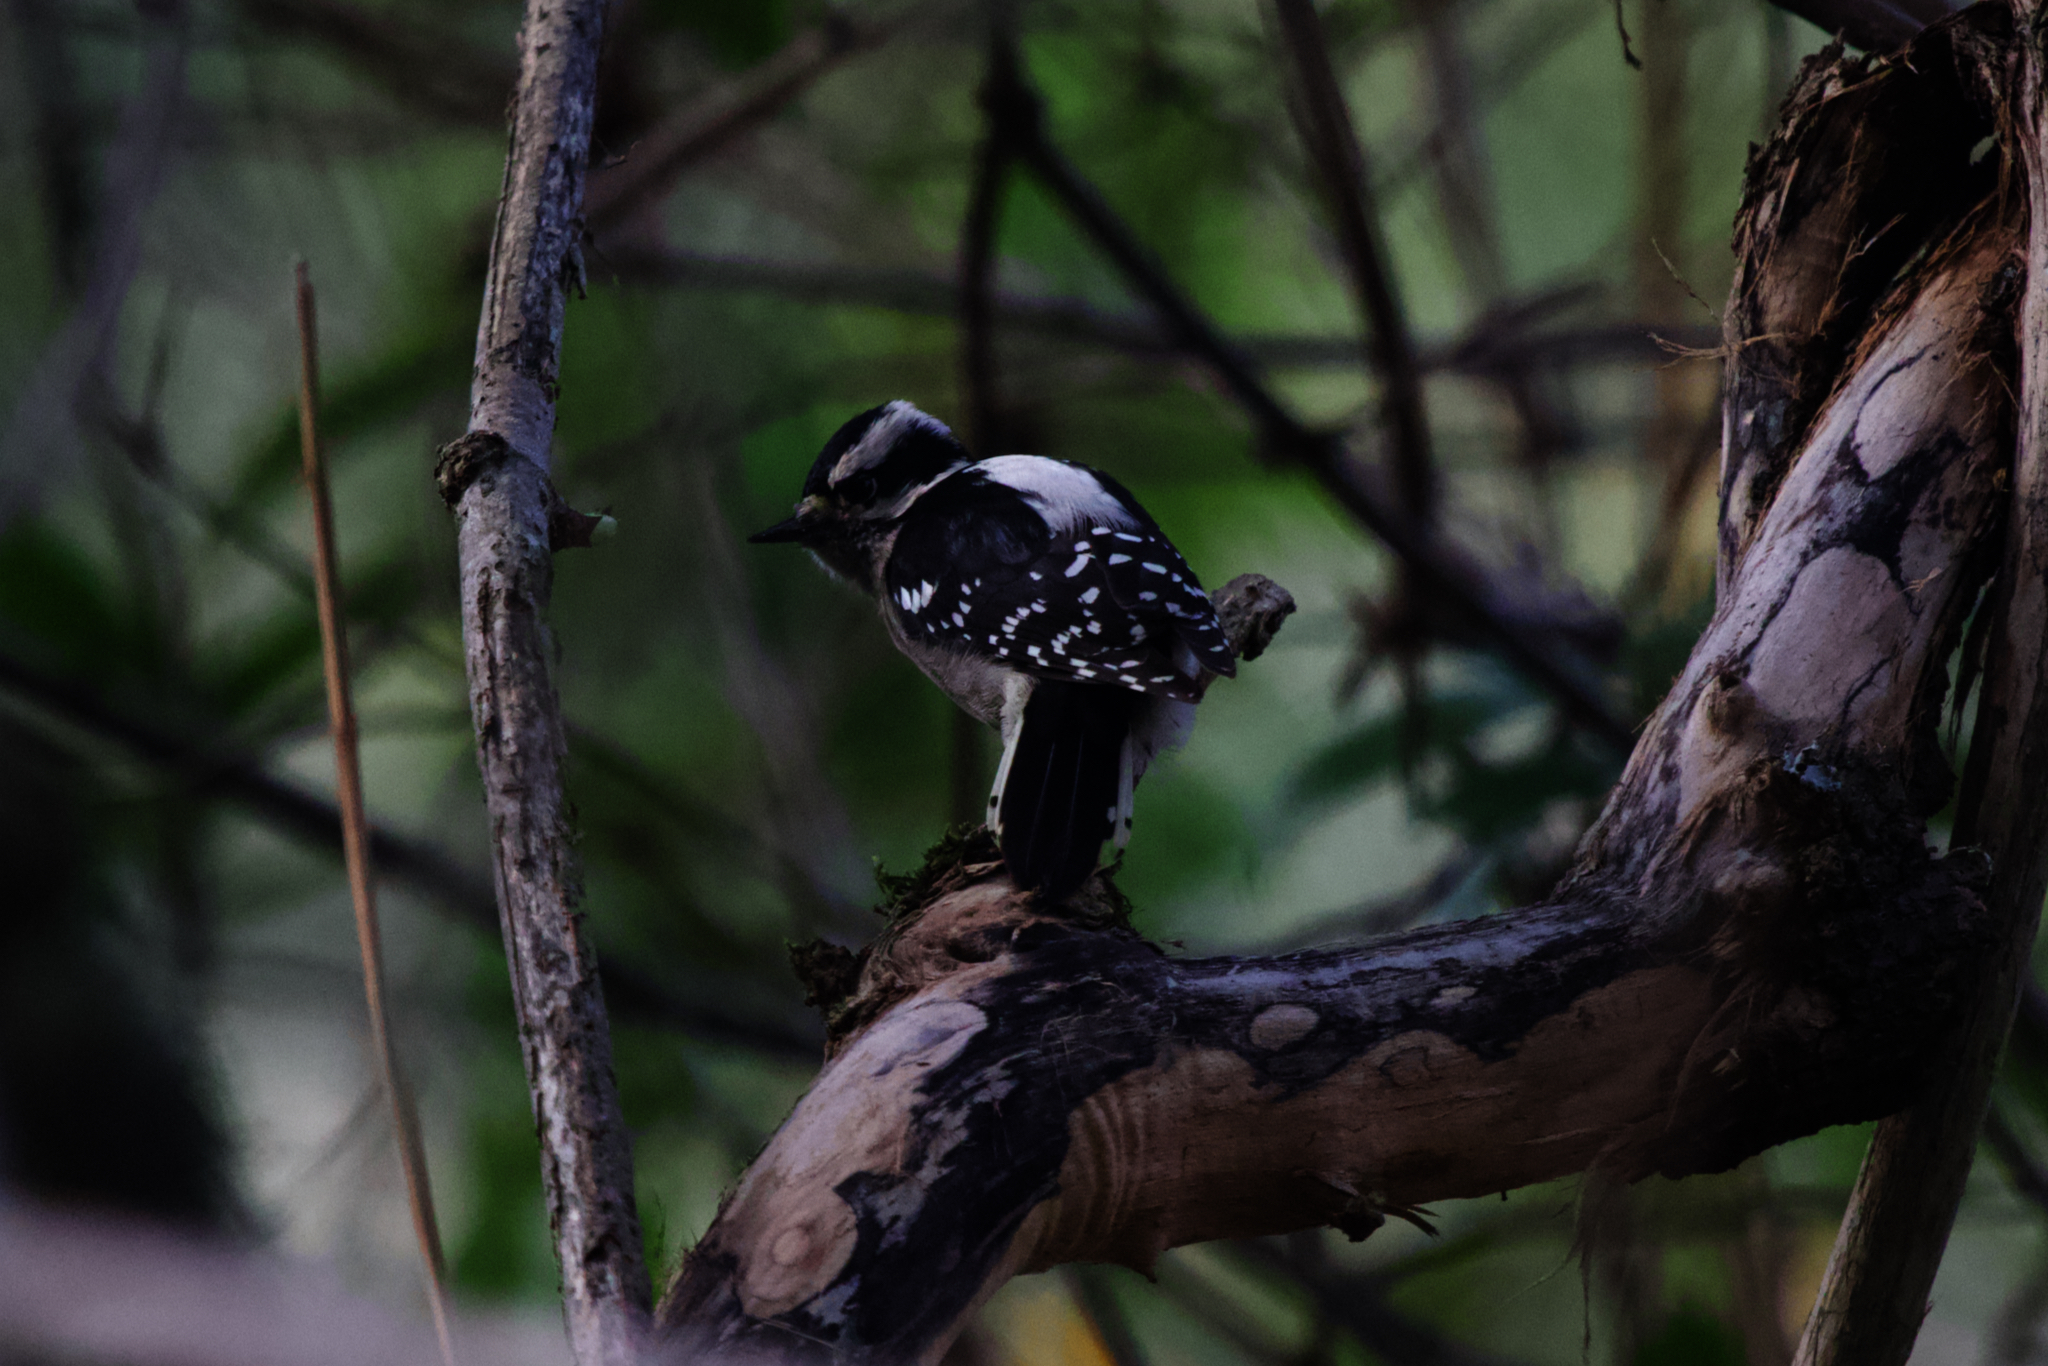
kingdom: Animalia
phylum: Chordata
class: Aves
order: Piciformes
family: Picidae
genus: Dryobates
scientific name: Dryobates pubescens
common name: Downy woodpecker
